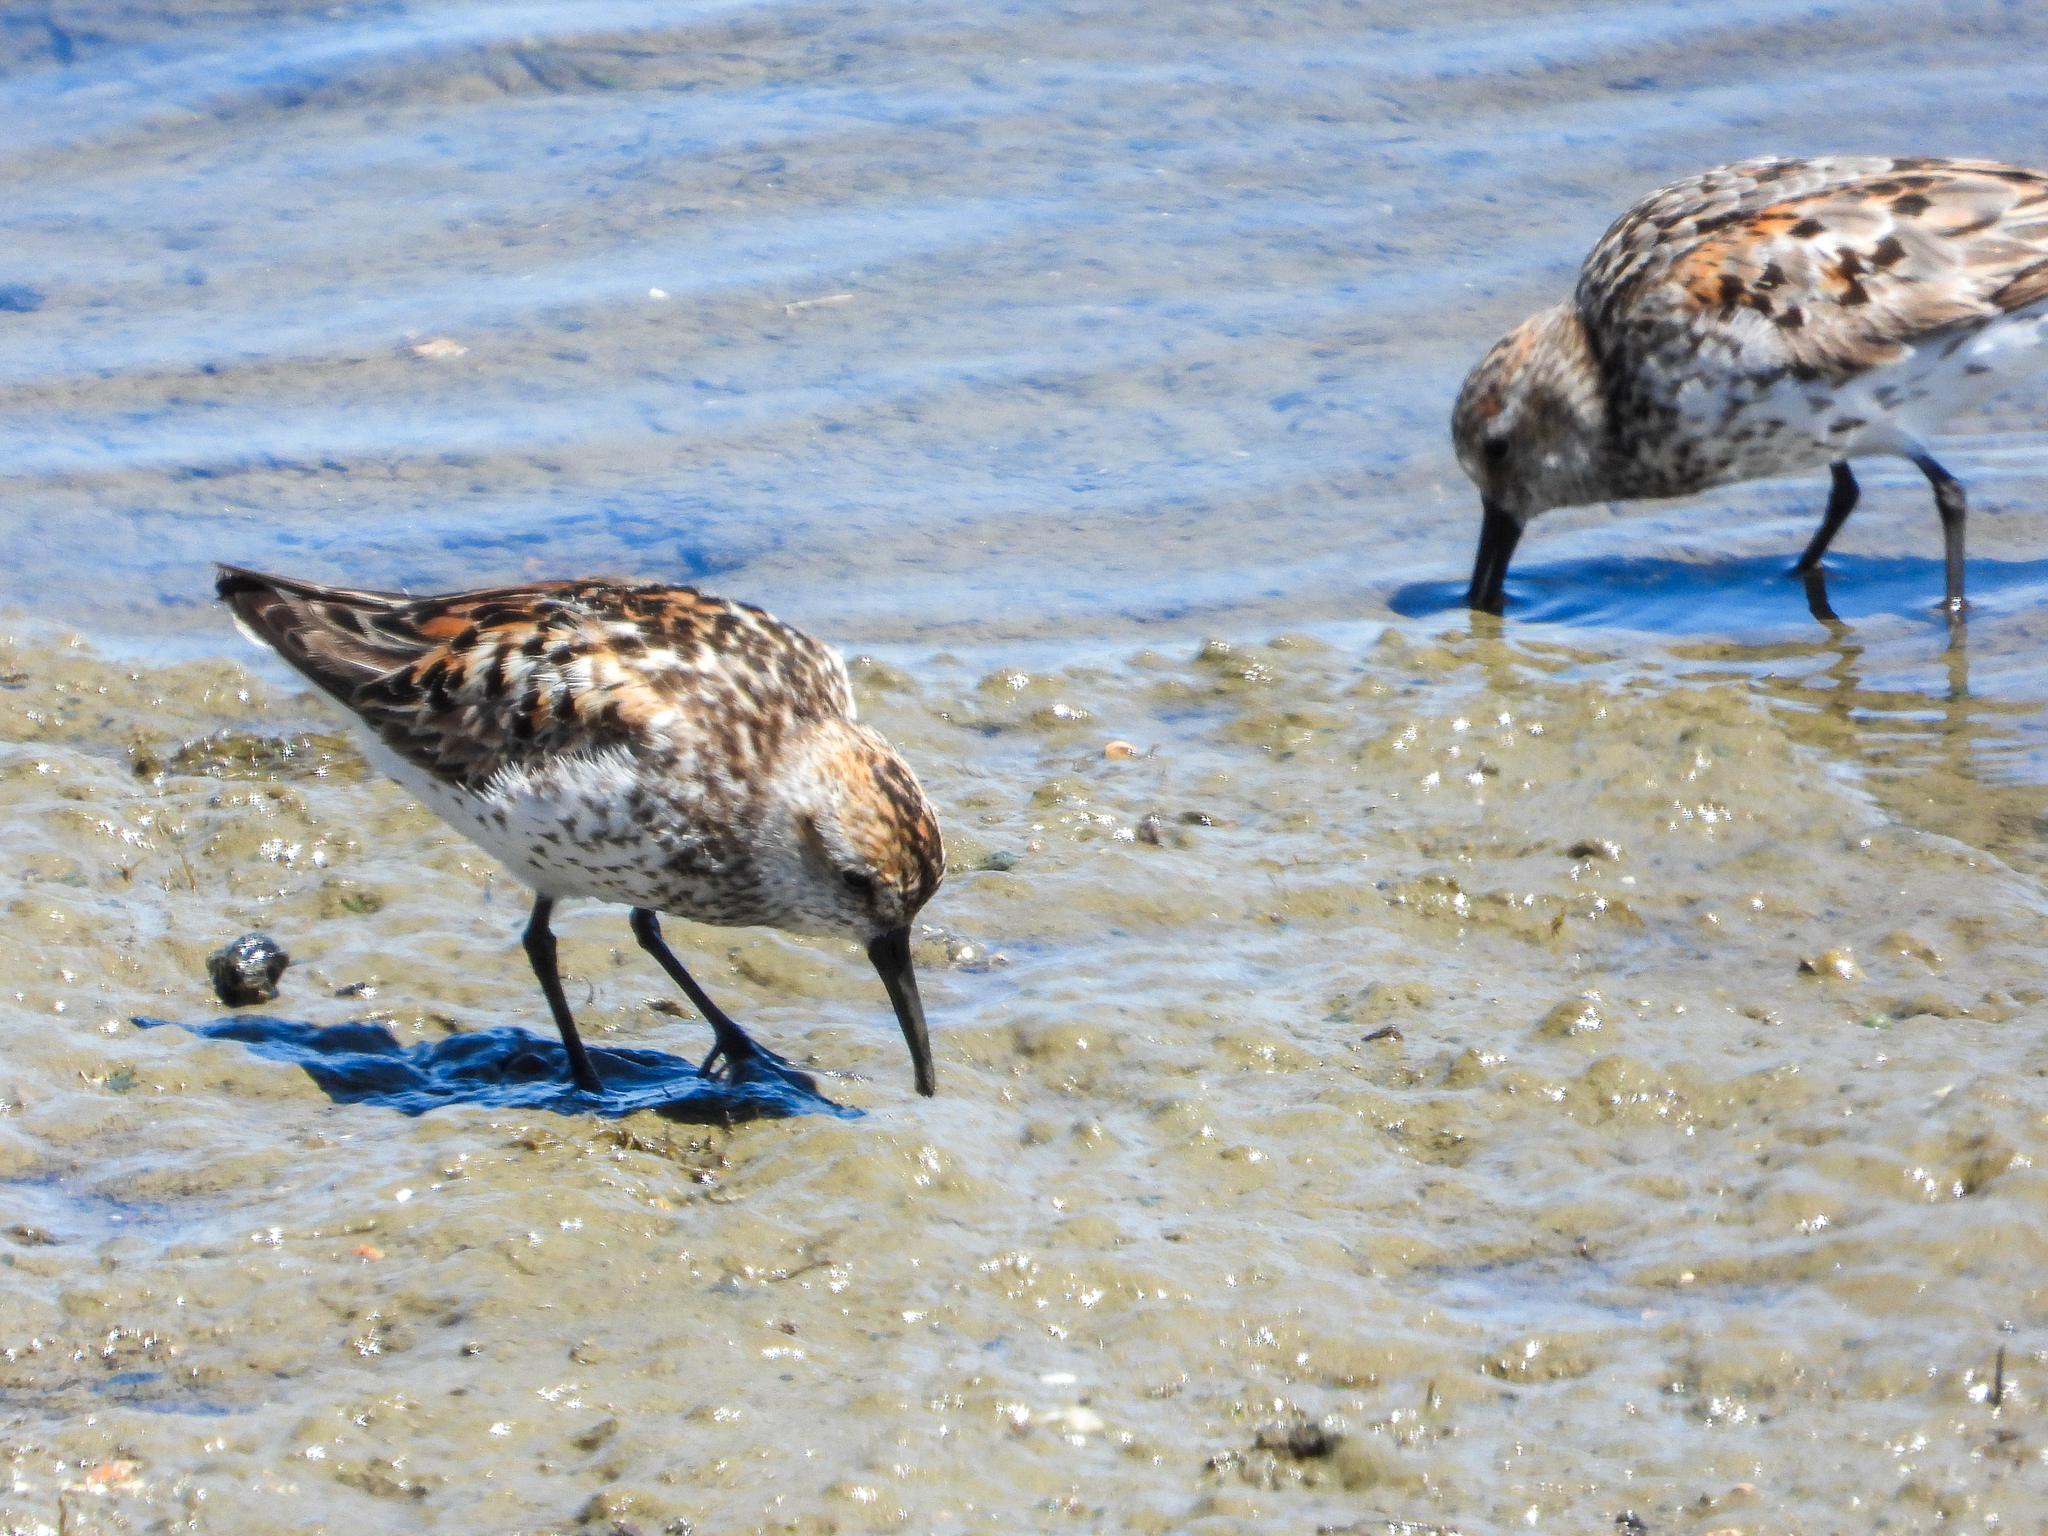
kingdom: Animalia
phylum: Chordata
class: Aves
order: Charadriiformes
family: Scolopacidae
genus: Calidris
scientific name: Calidris mauri
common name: Western sandpiper
